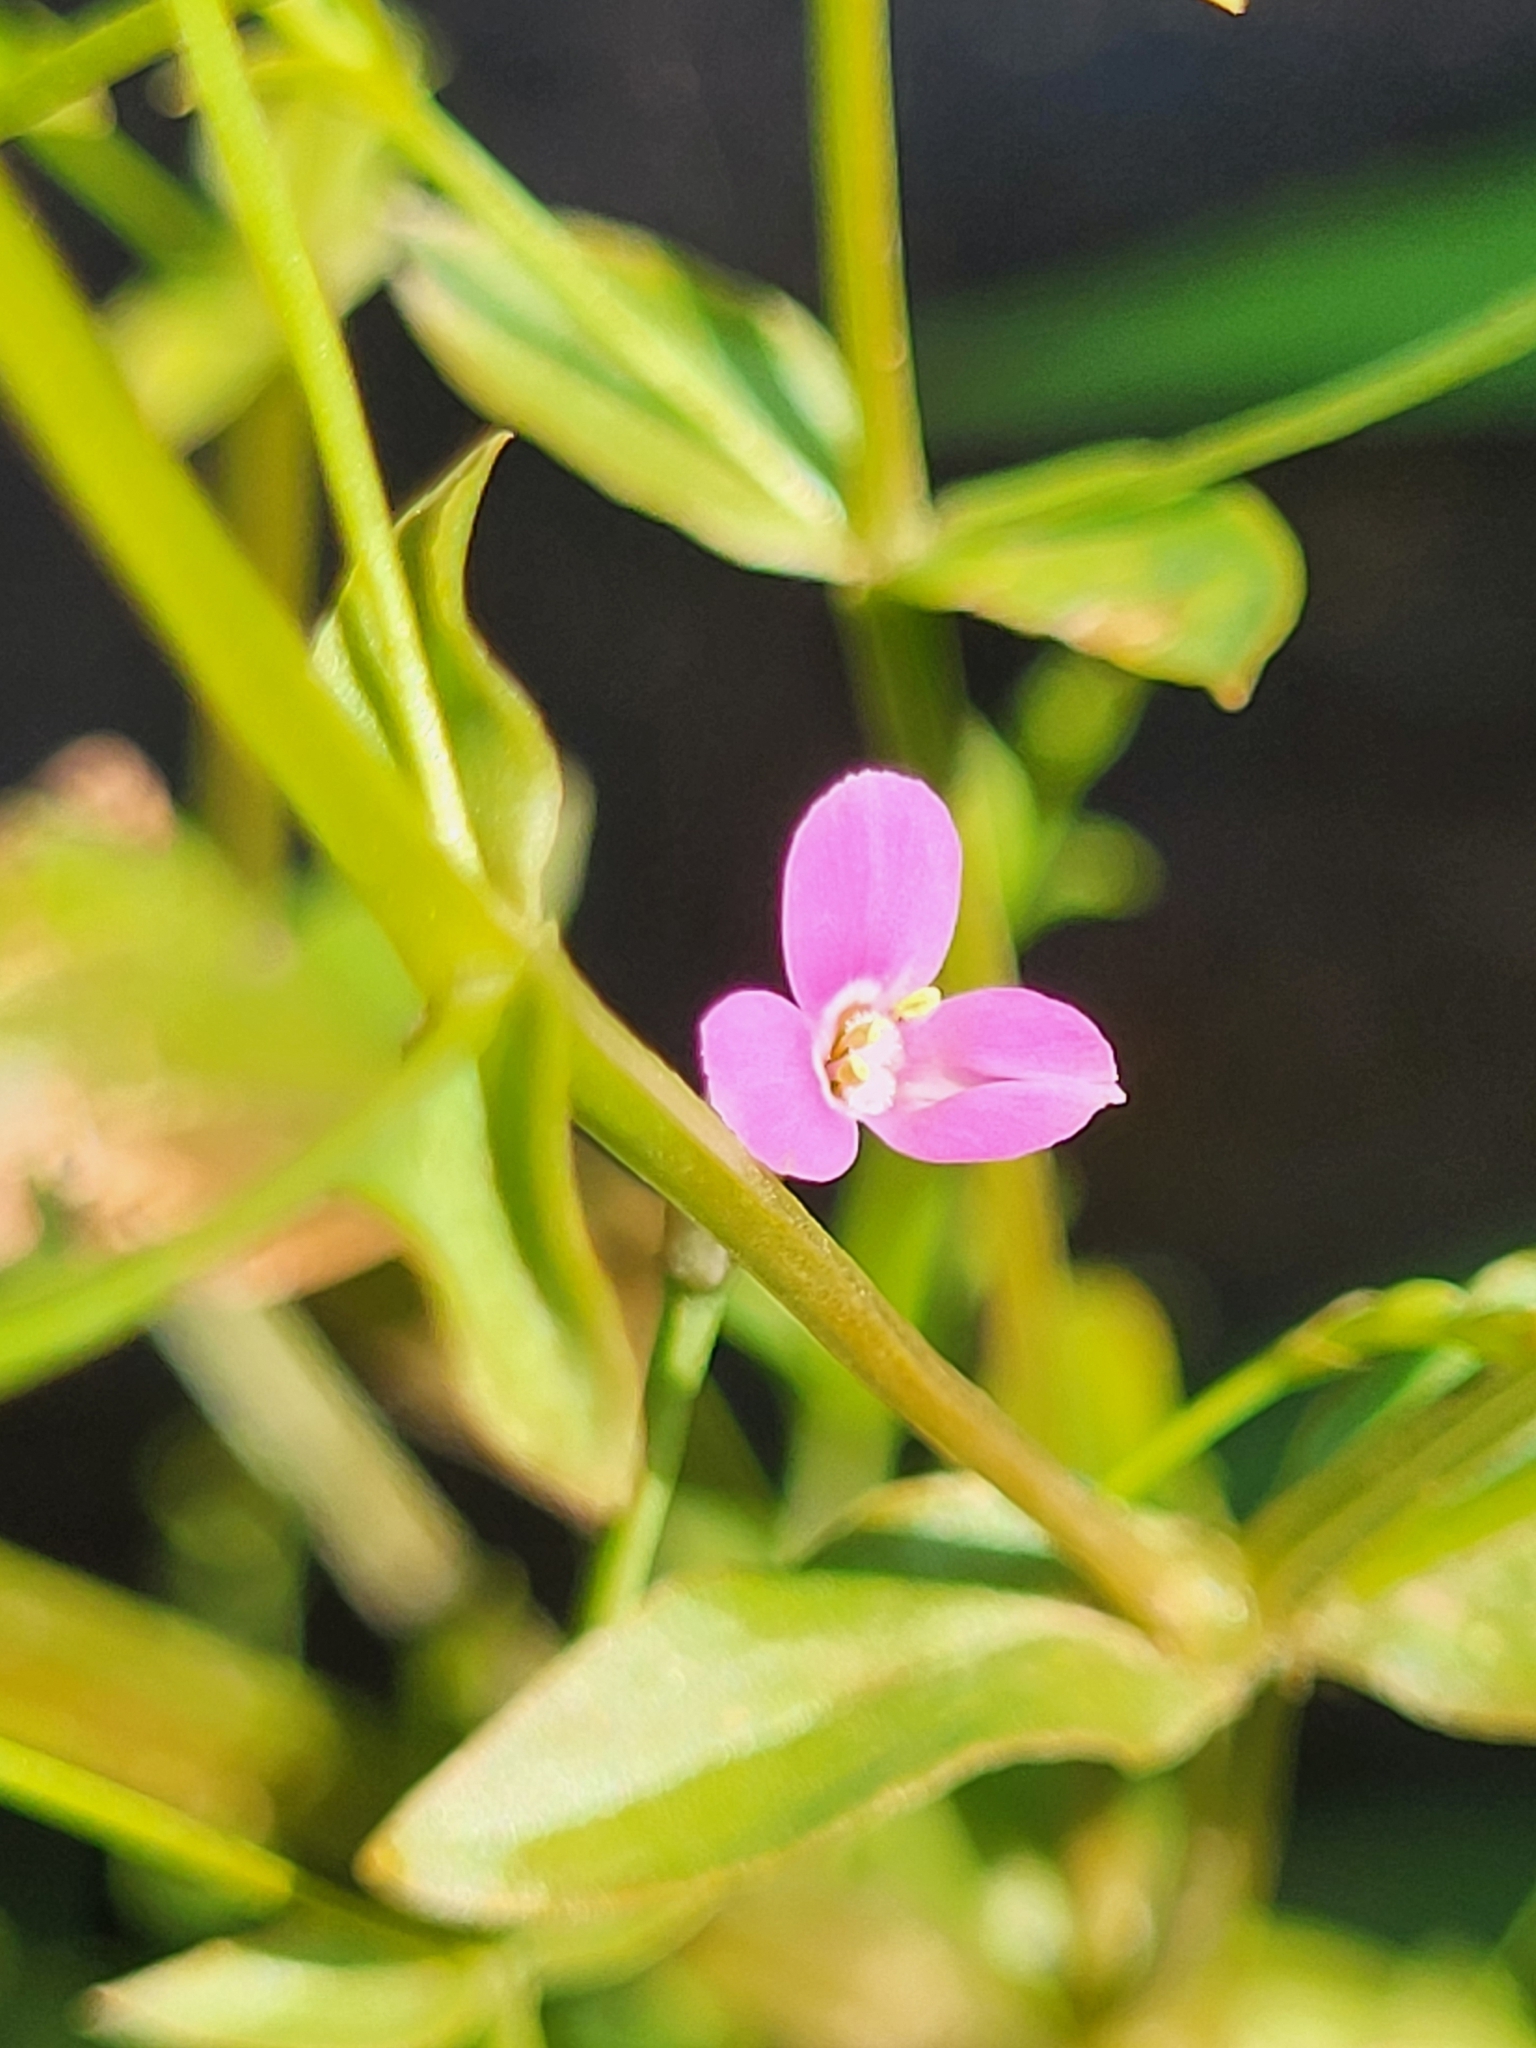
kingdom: Plantae
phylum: Tracheophyta
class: Magnoliopsida
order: Gentianales
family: Gentianaceae
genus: Canscora
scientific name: Canscora diffusa
